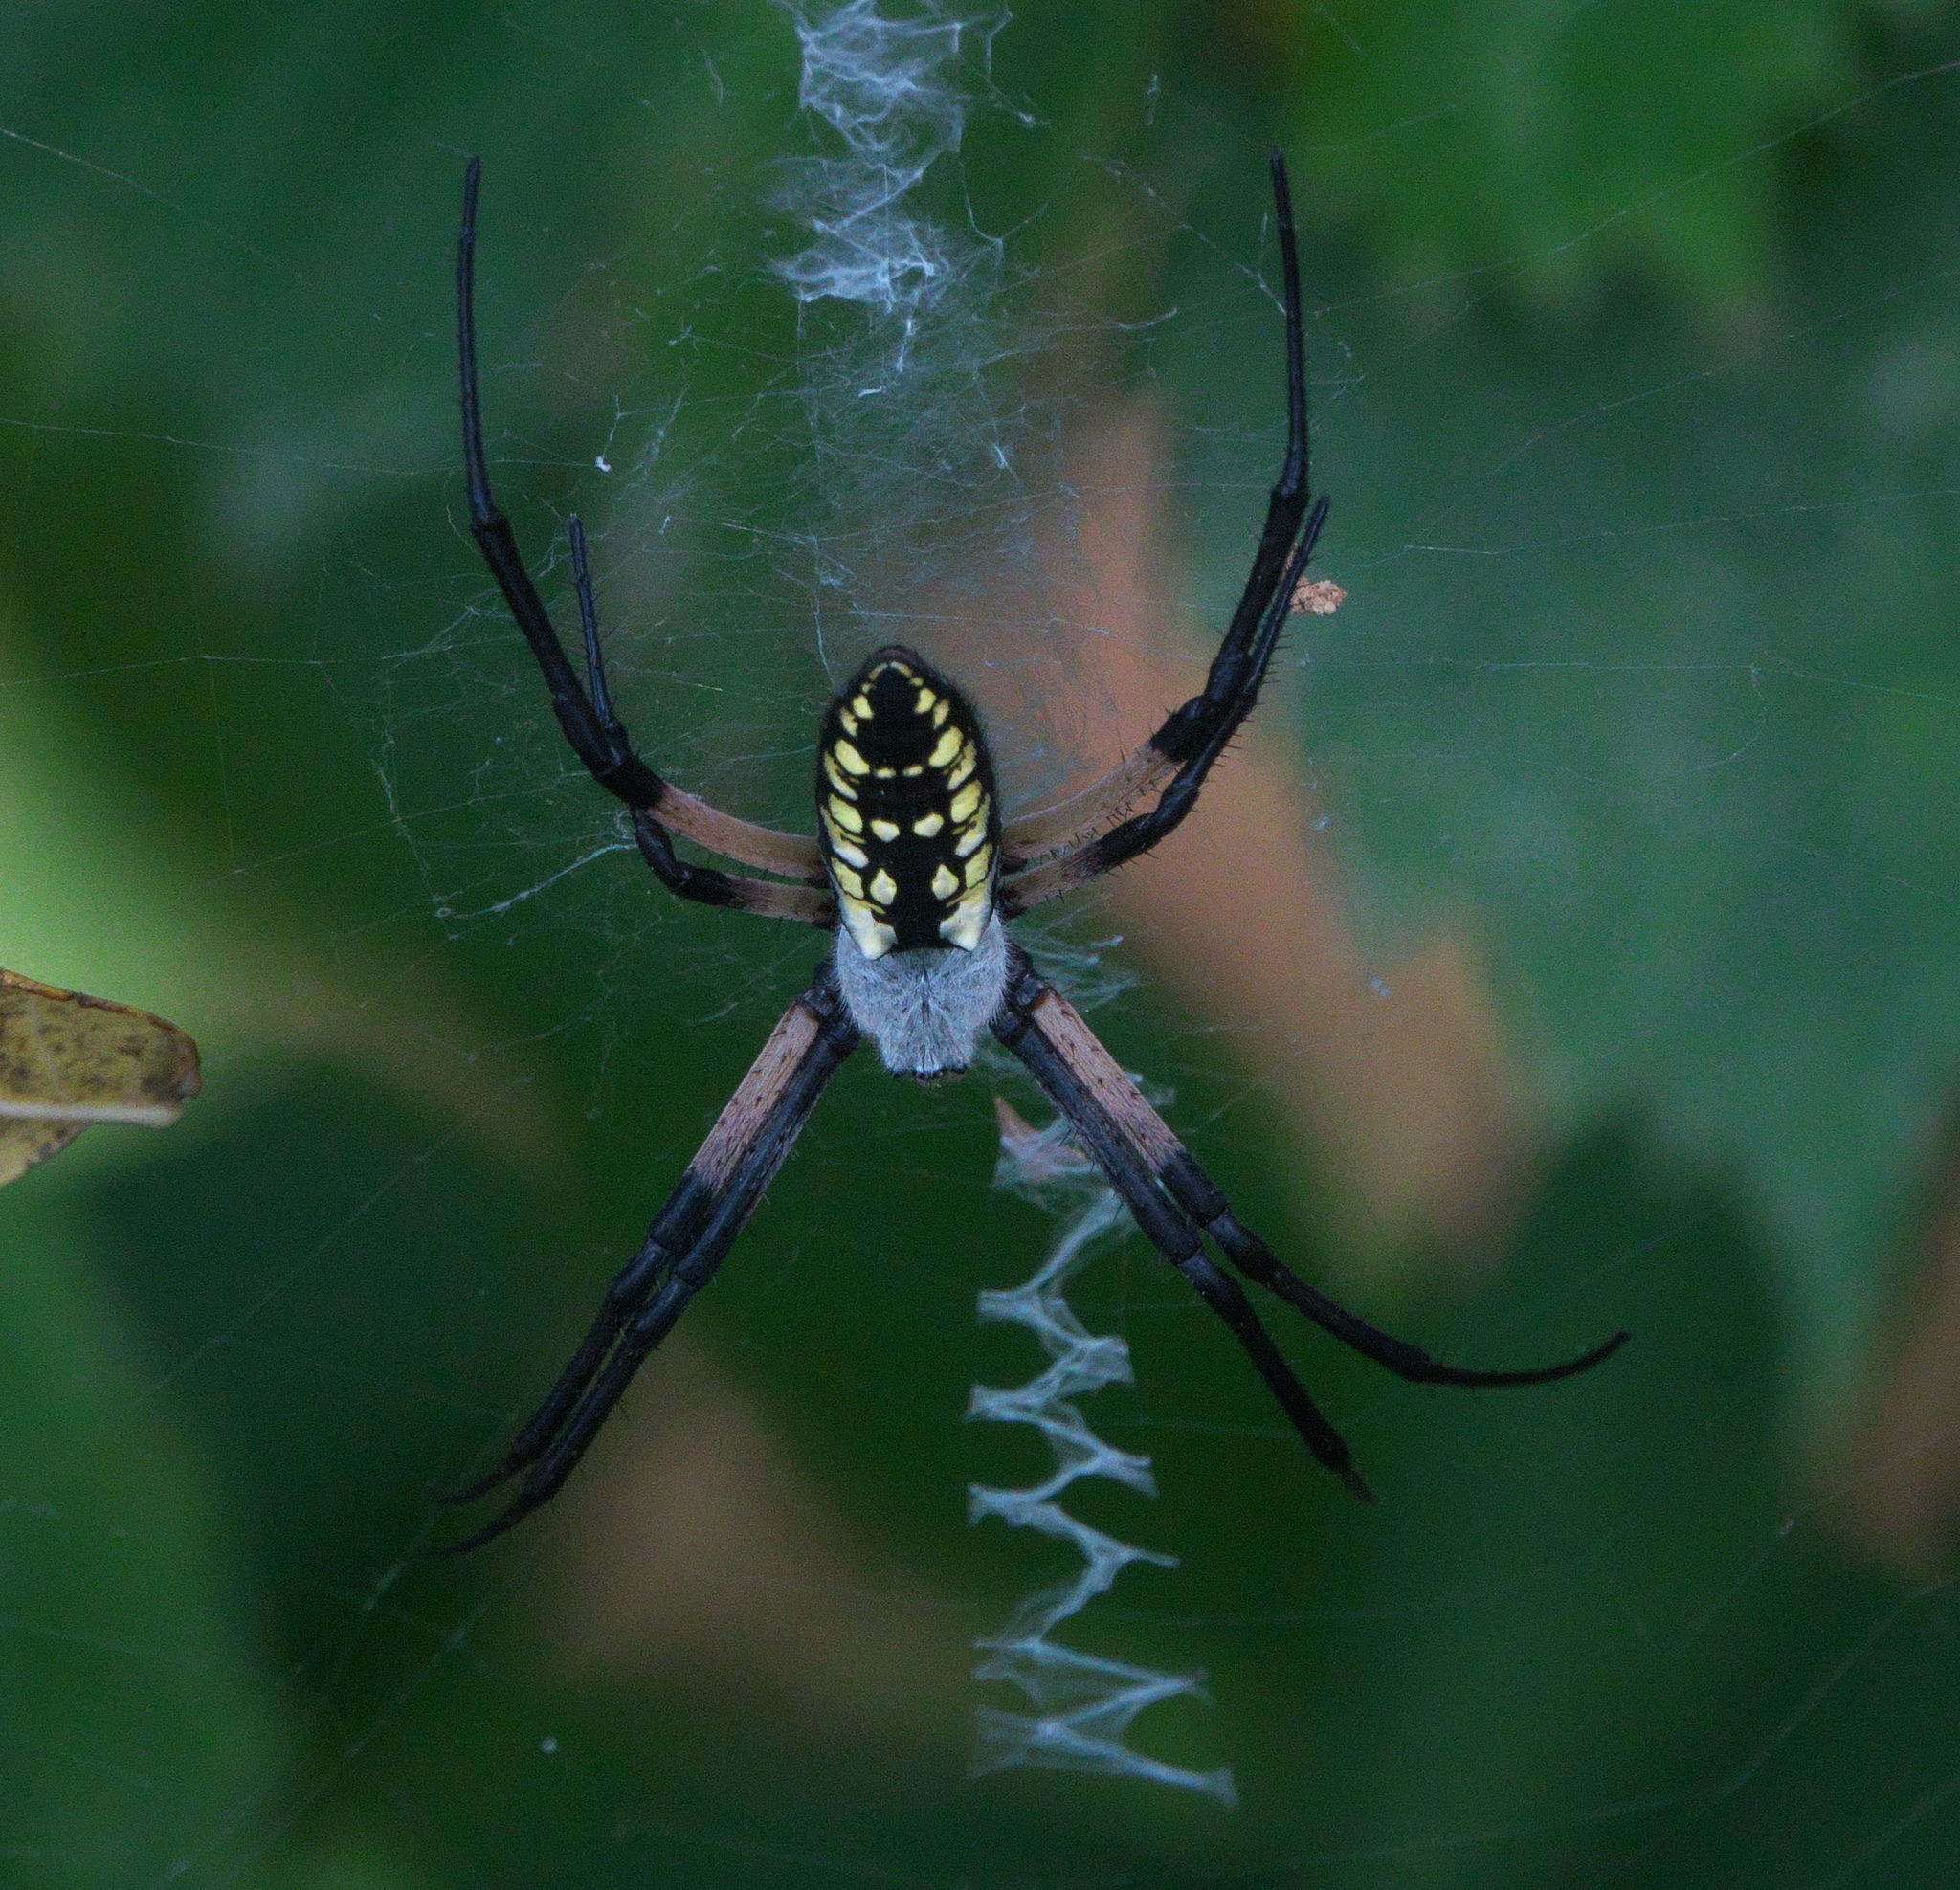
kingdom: Animalia
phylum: Arthropoda
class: Arachnida
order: Araneae
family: Araneidae
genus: Argiope
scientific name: Argiope aurantia
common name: Orb weavers
